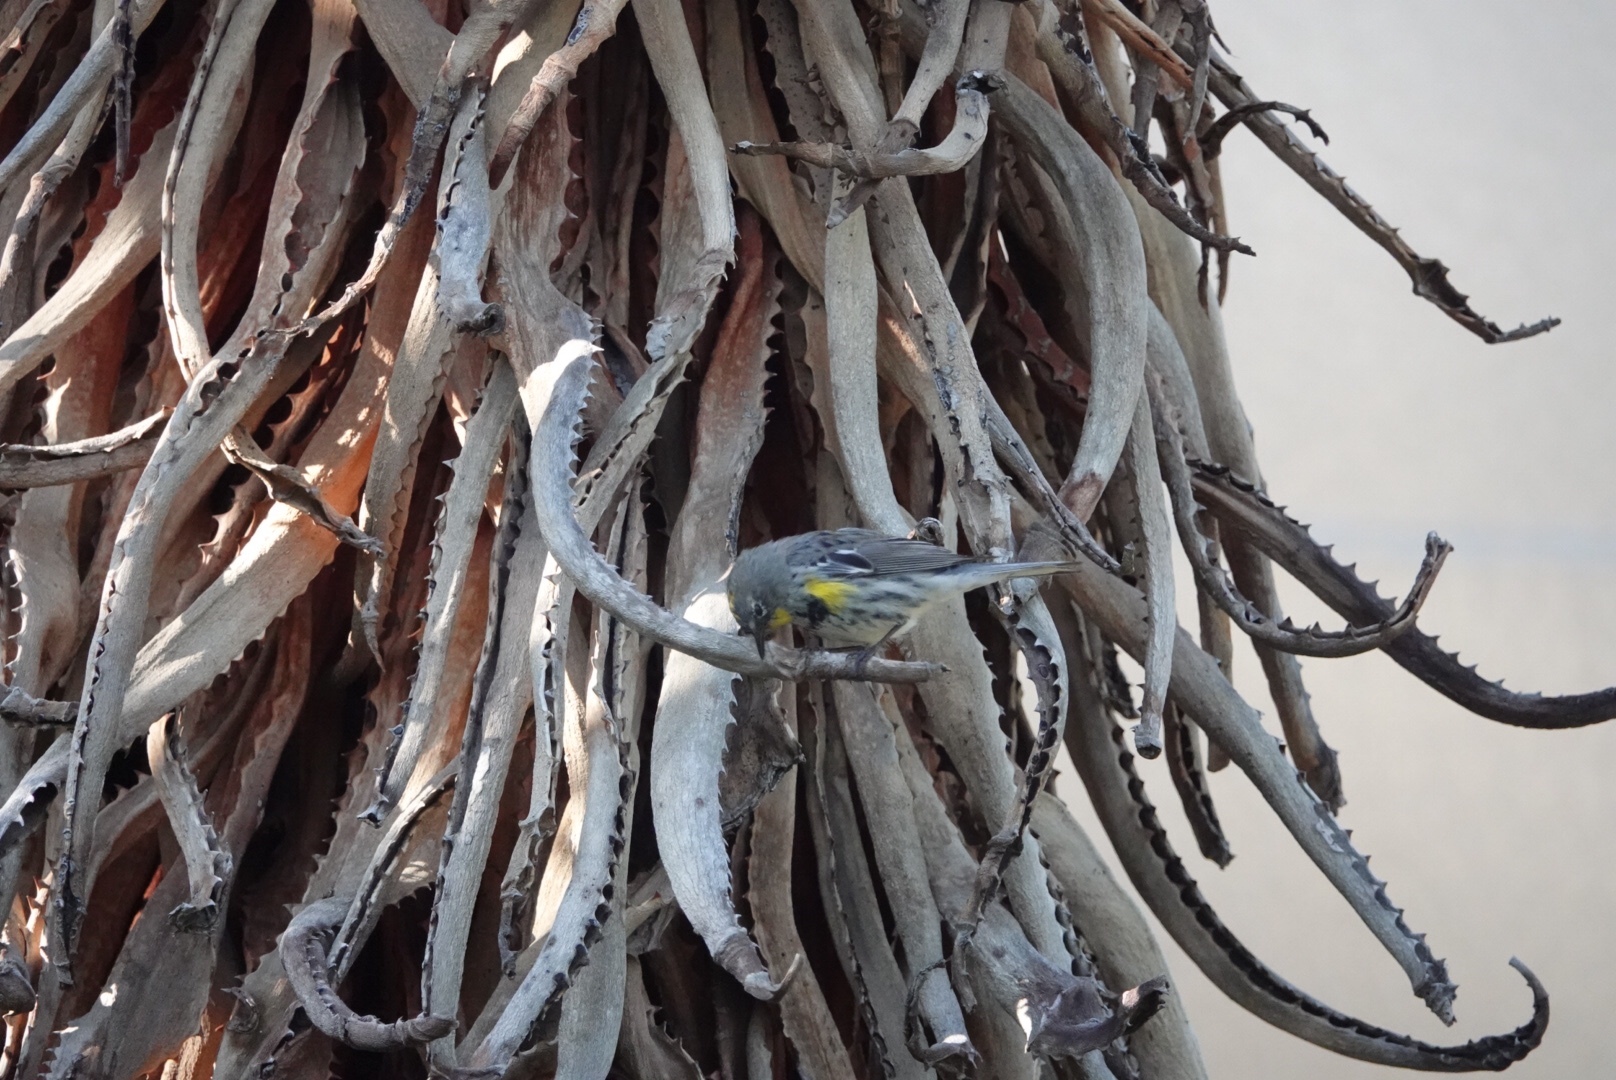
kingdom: Animalia
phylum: Chordata
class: Aves
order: Passeriformes
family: Parulidae
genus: Setophaga
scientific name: Setophaga coronata
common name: Myrtle warbler
